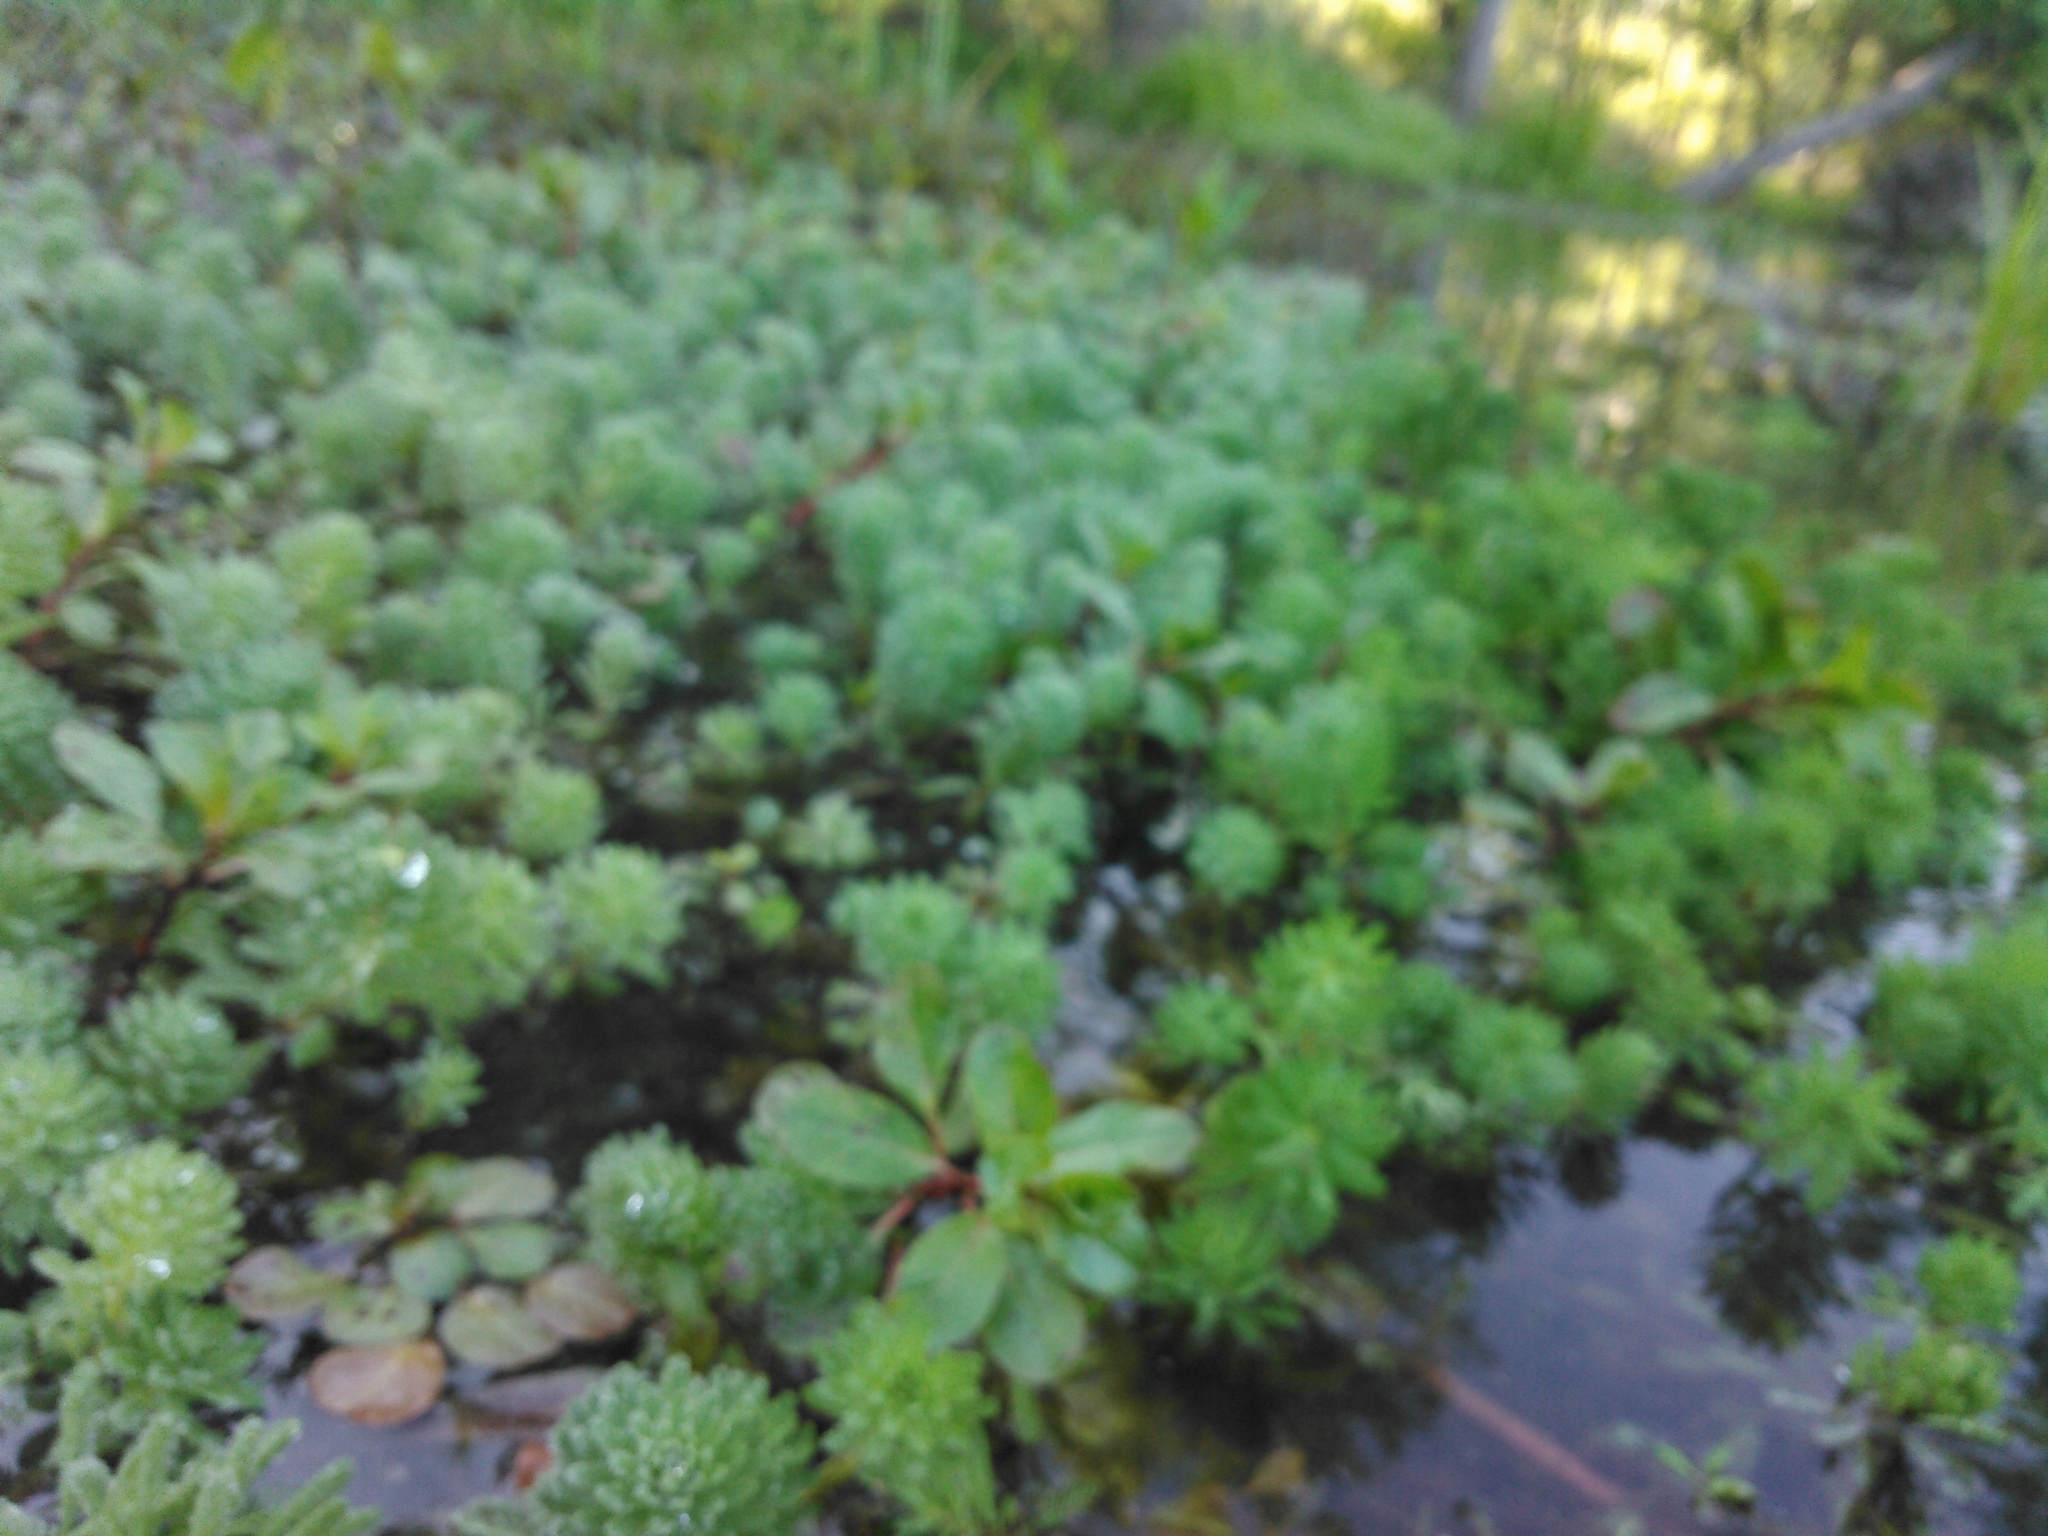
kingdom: Plantae
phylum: Tracheophyta
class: Magnoliopsida
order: Saxifragales
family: Haloragaceae
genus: Myriophyllum
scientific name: Myriophyllum aquaticum
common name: Parrot's feather
